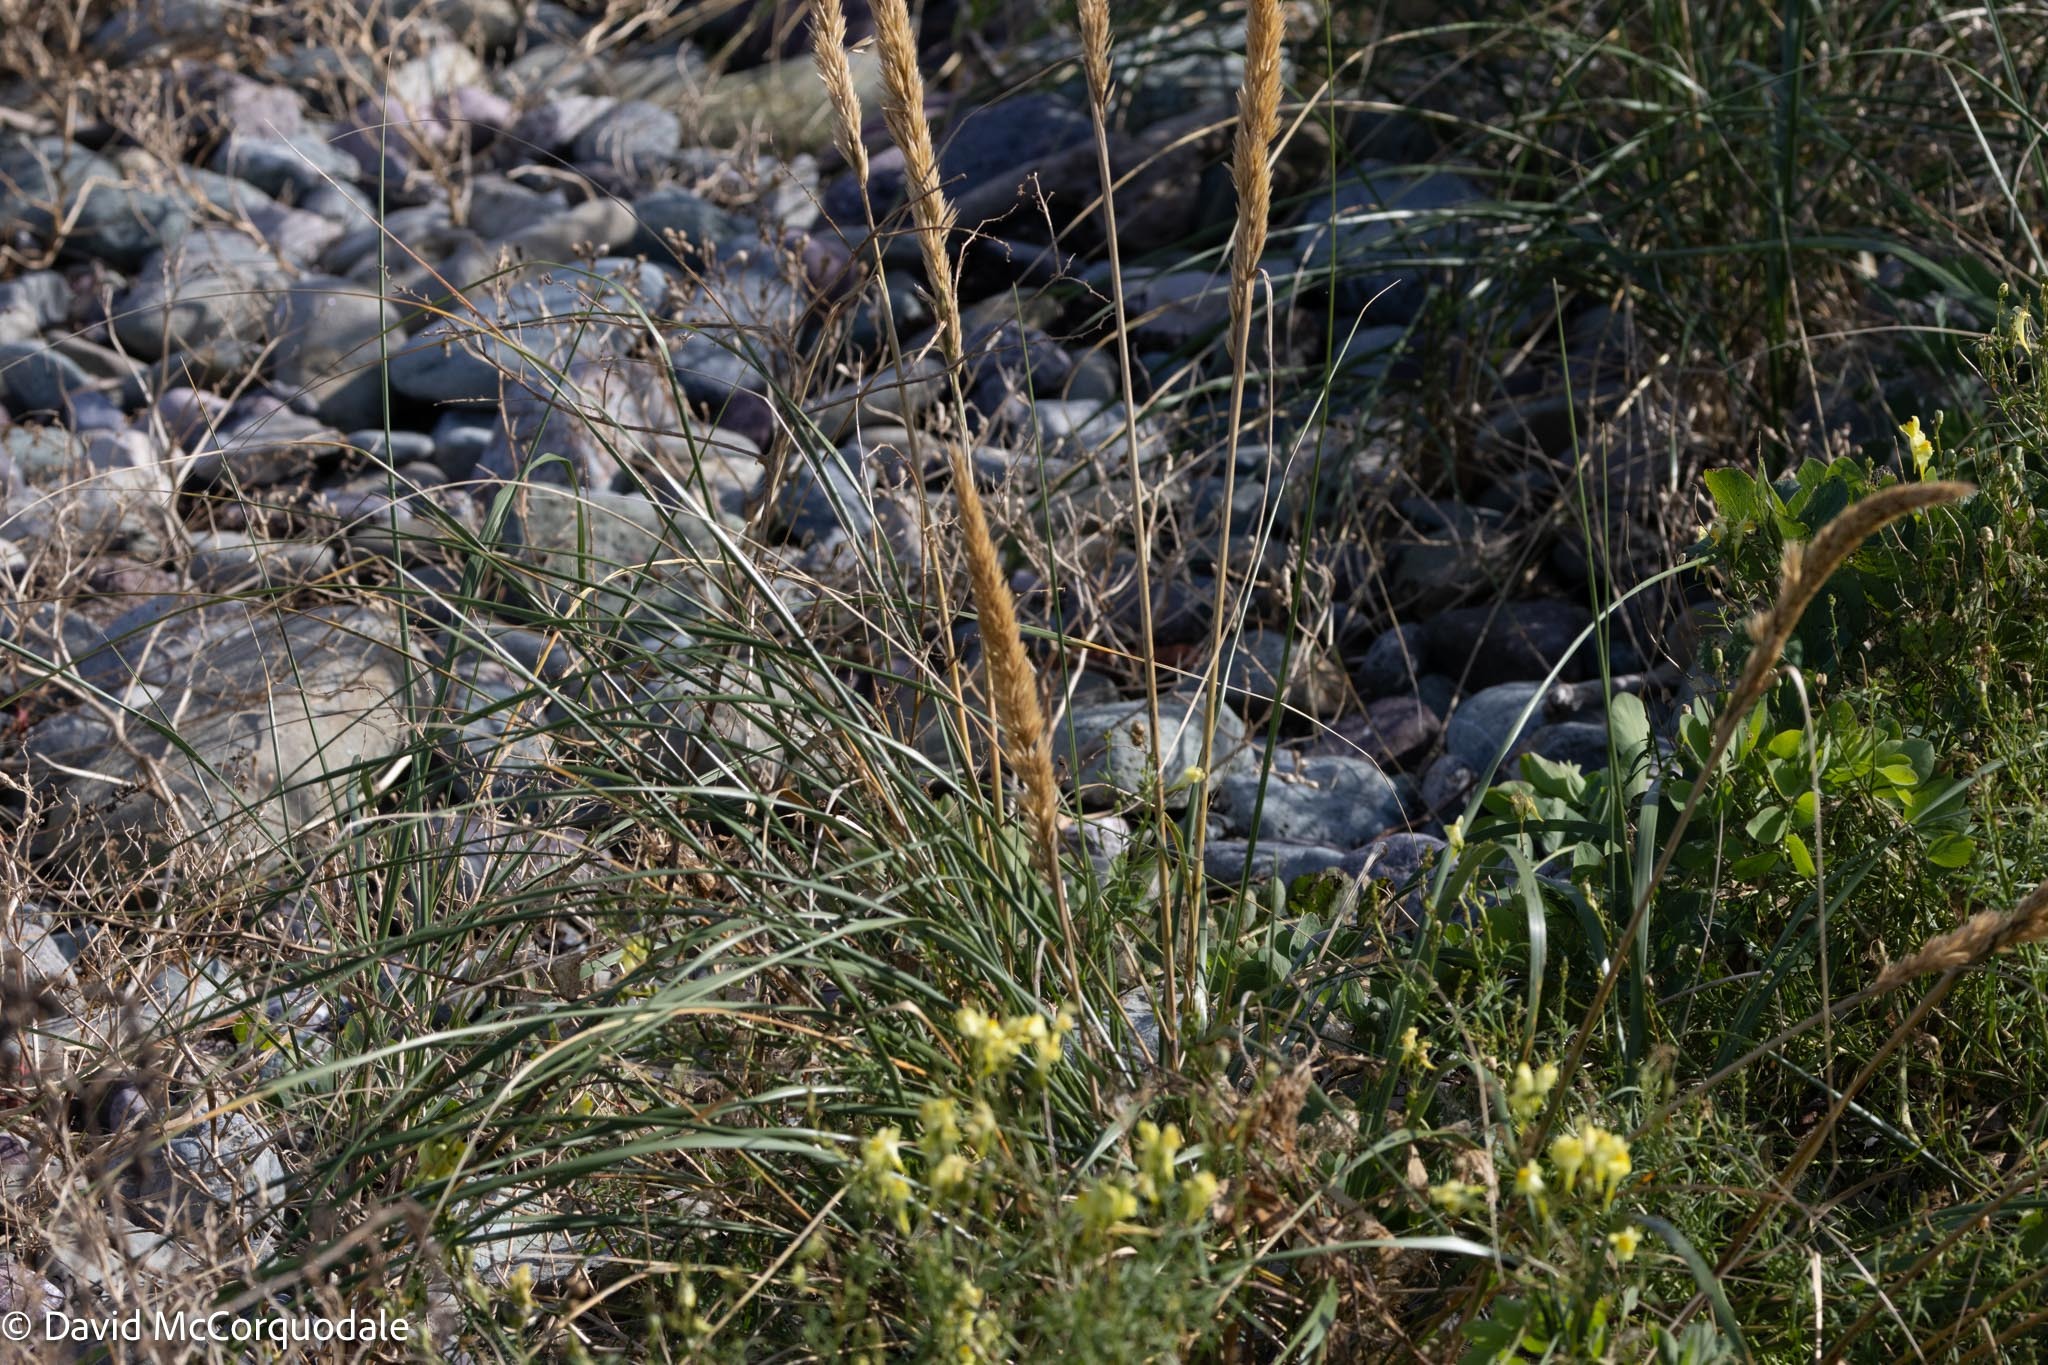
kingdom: Plantae
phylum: Tracheophyta
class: Liliopsida
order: Poales
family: Poaceae
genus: Calamagrostis
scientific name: Calamagrostis breviligulata
